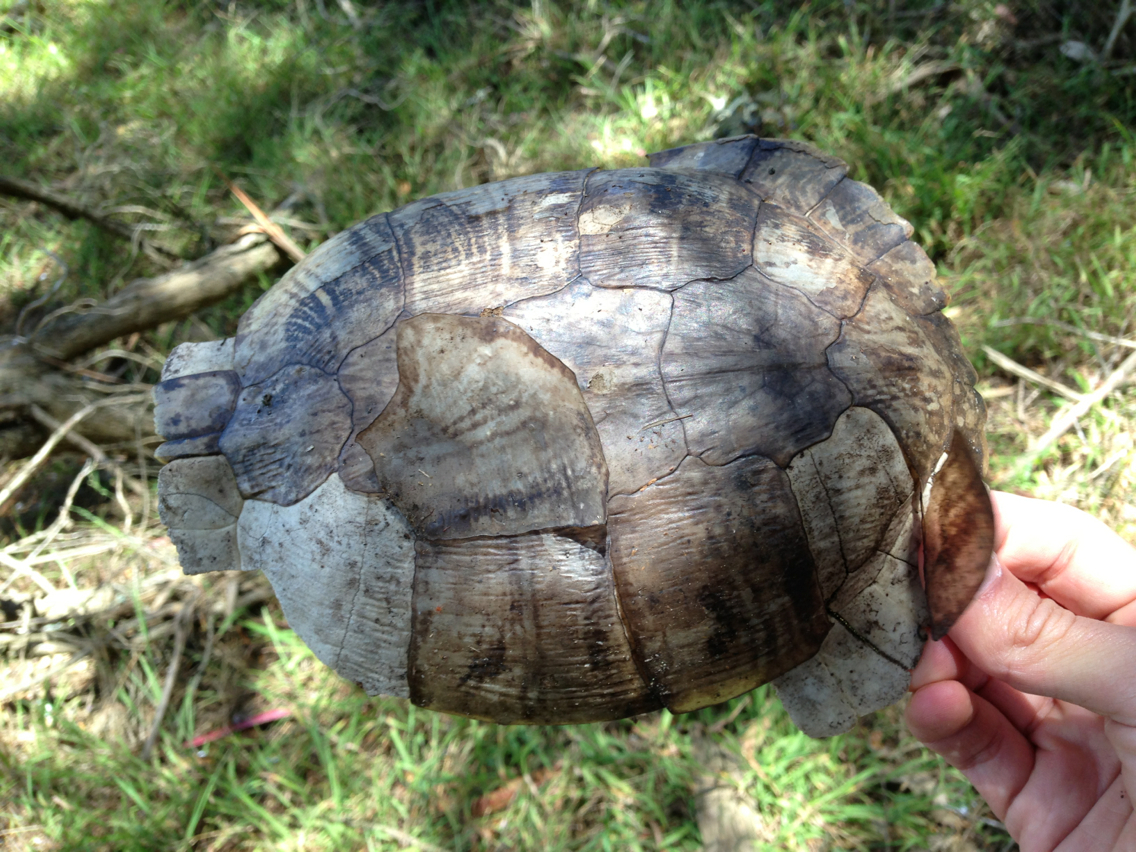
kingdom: Animalia
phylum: Chordata
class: Testudines
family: Emydidae
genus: Trachemys
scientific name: Trachemys scripta
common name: Slider
